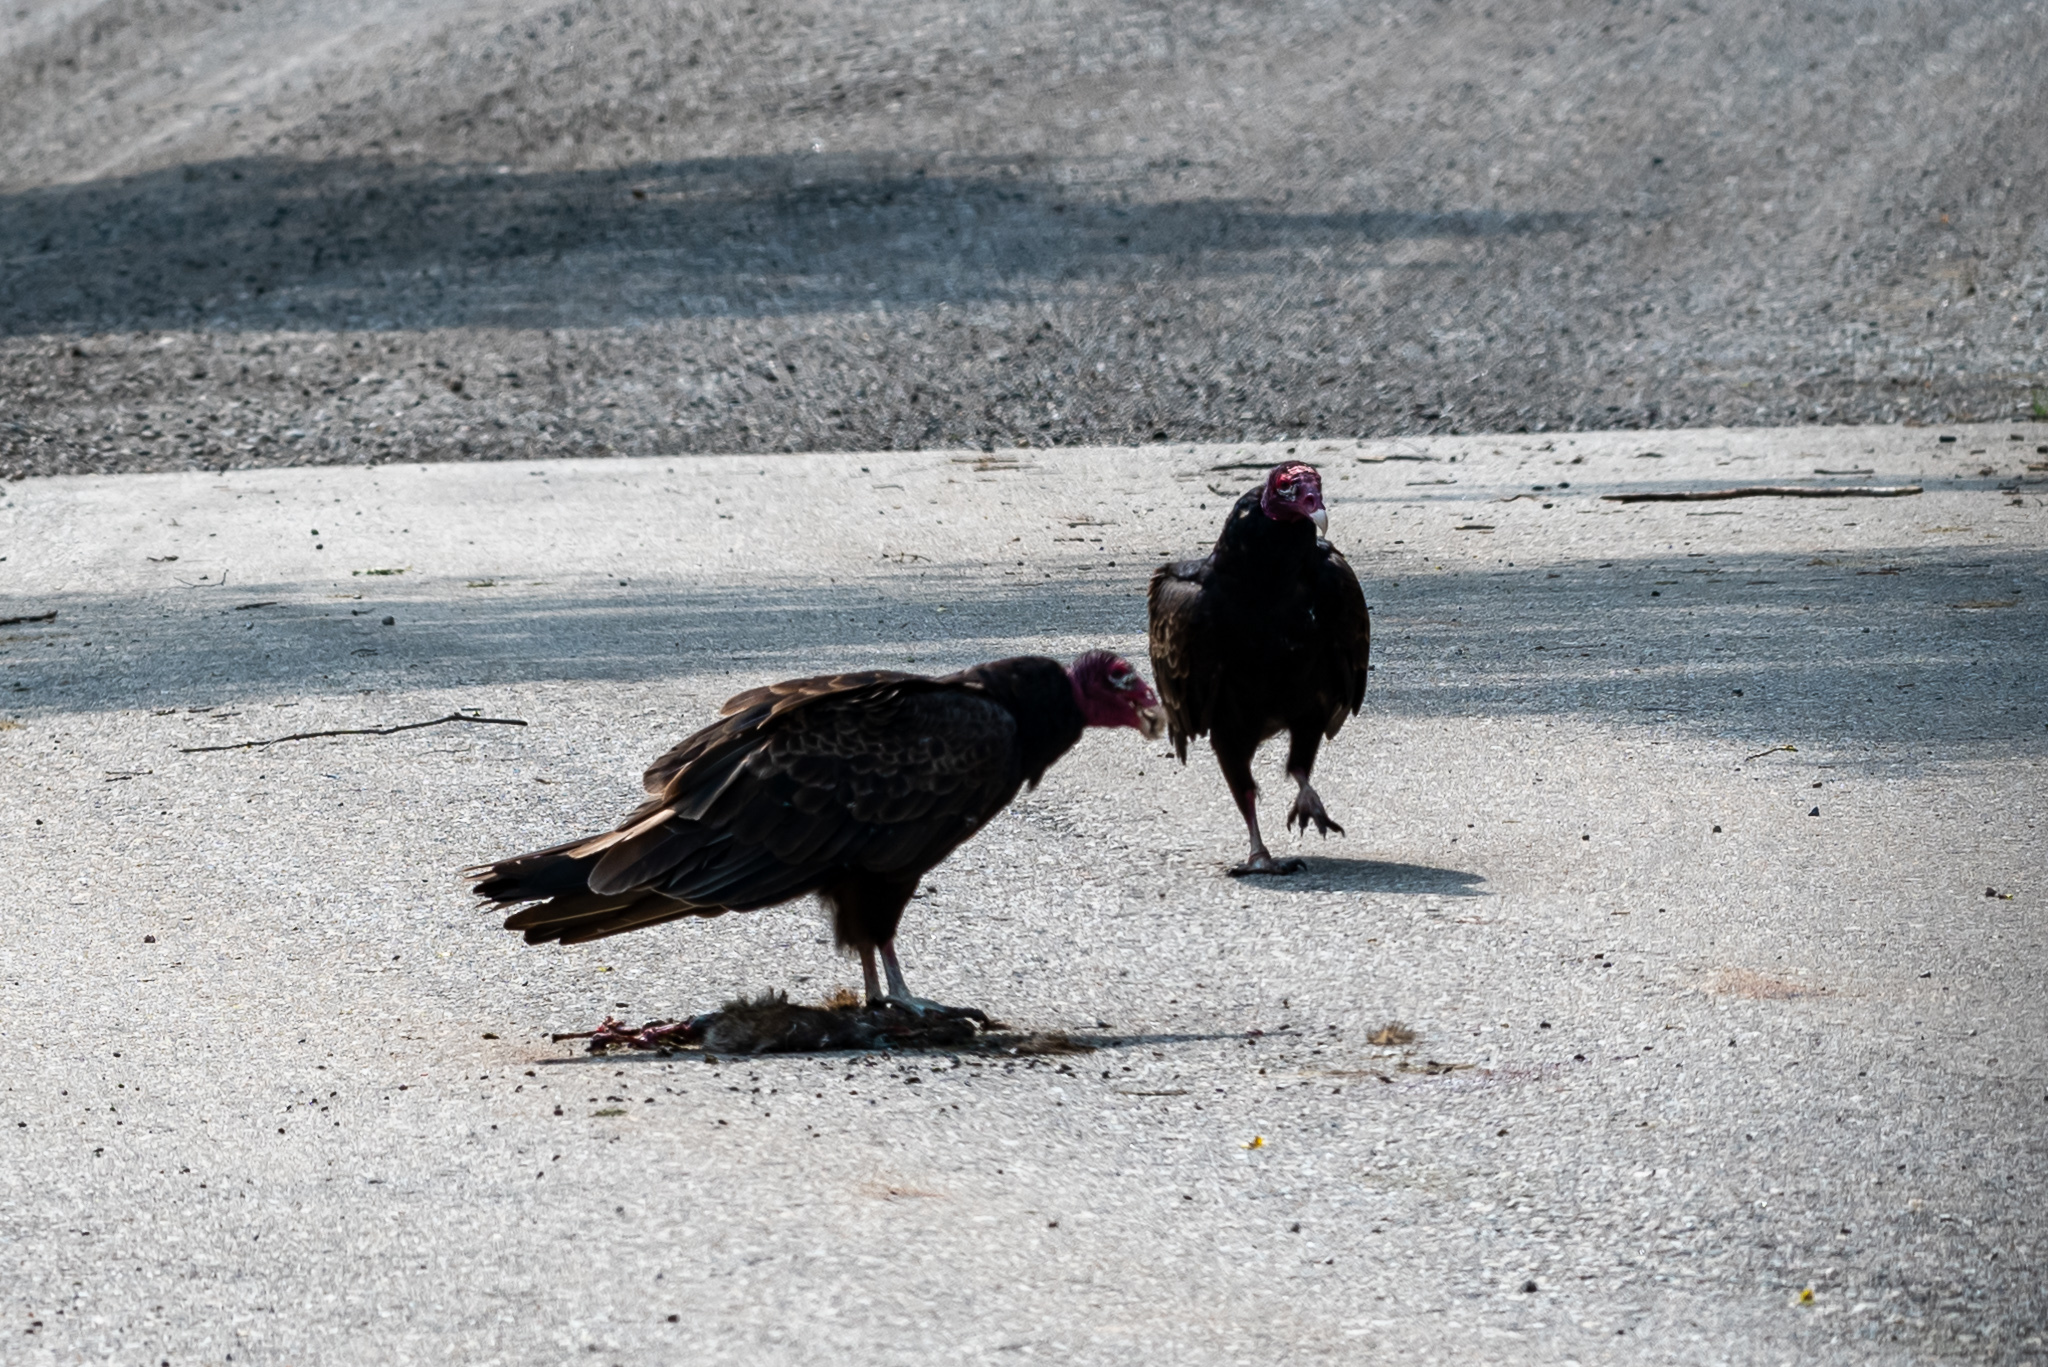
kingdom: Animalia
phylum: Chordata
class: Aves
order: Accipitriformes
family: Cathartidae
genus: Cathartes
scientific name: Cathartes aura
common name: Turkey vulture
